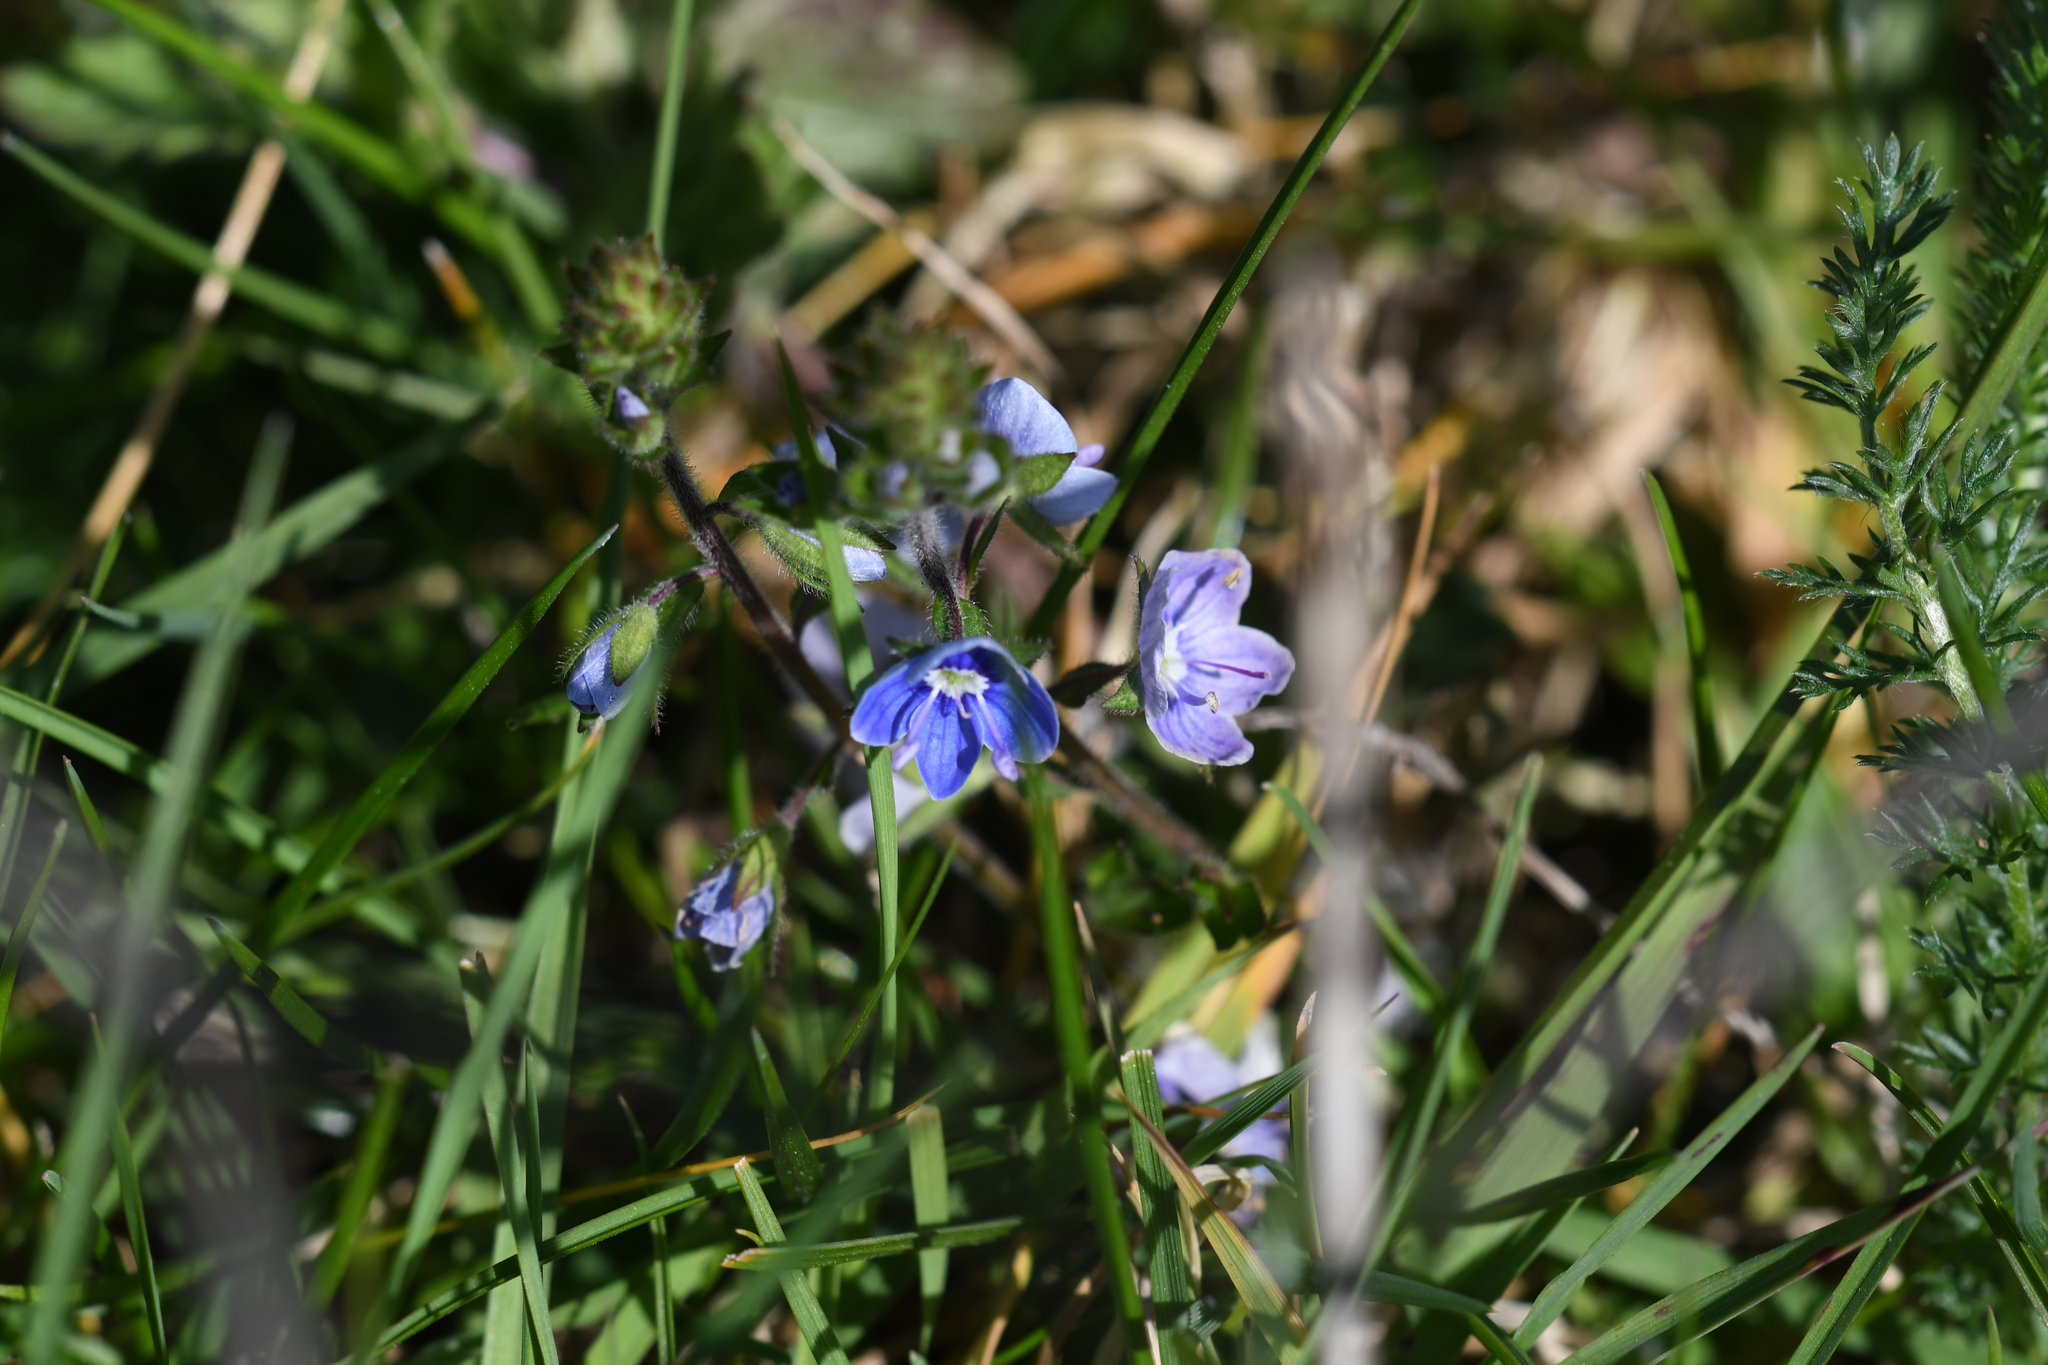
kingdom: Plantae
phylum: Tracheophyta
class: Magnoliopsida
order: Lamiales
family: Plantaginaceae
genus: Veronica
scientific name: Veronica chamaedrys
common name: Germander speedwell
